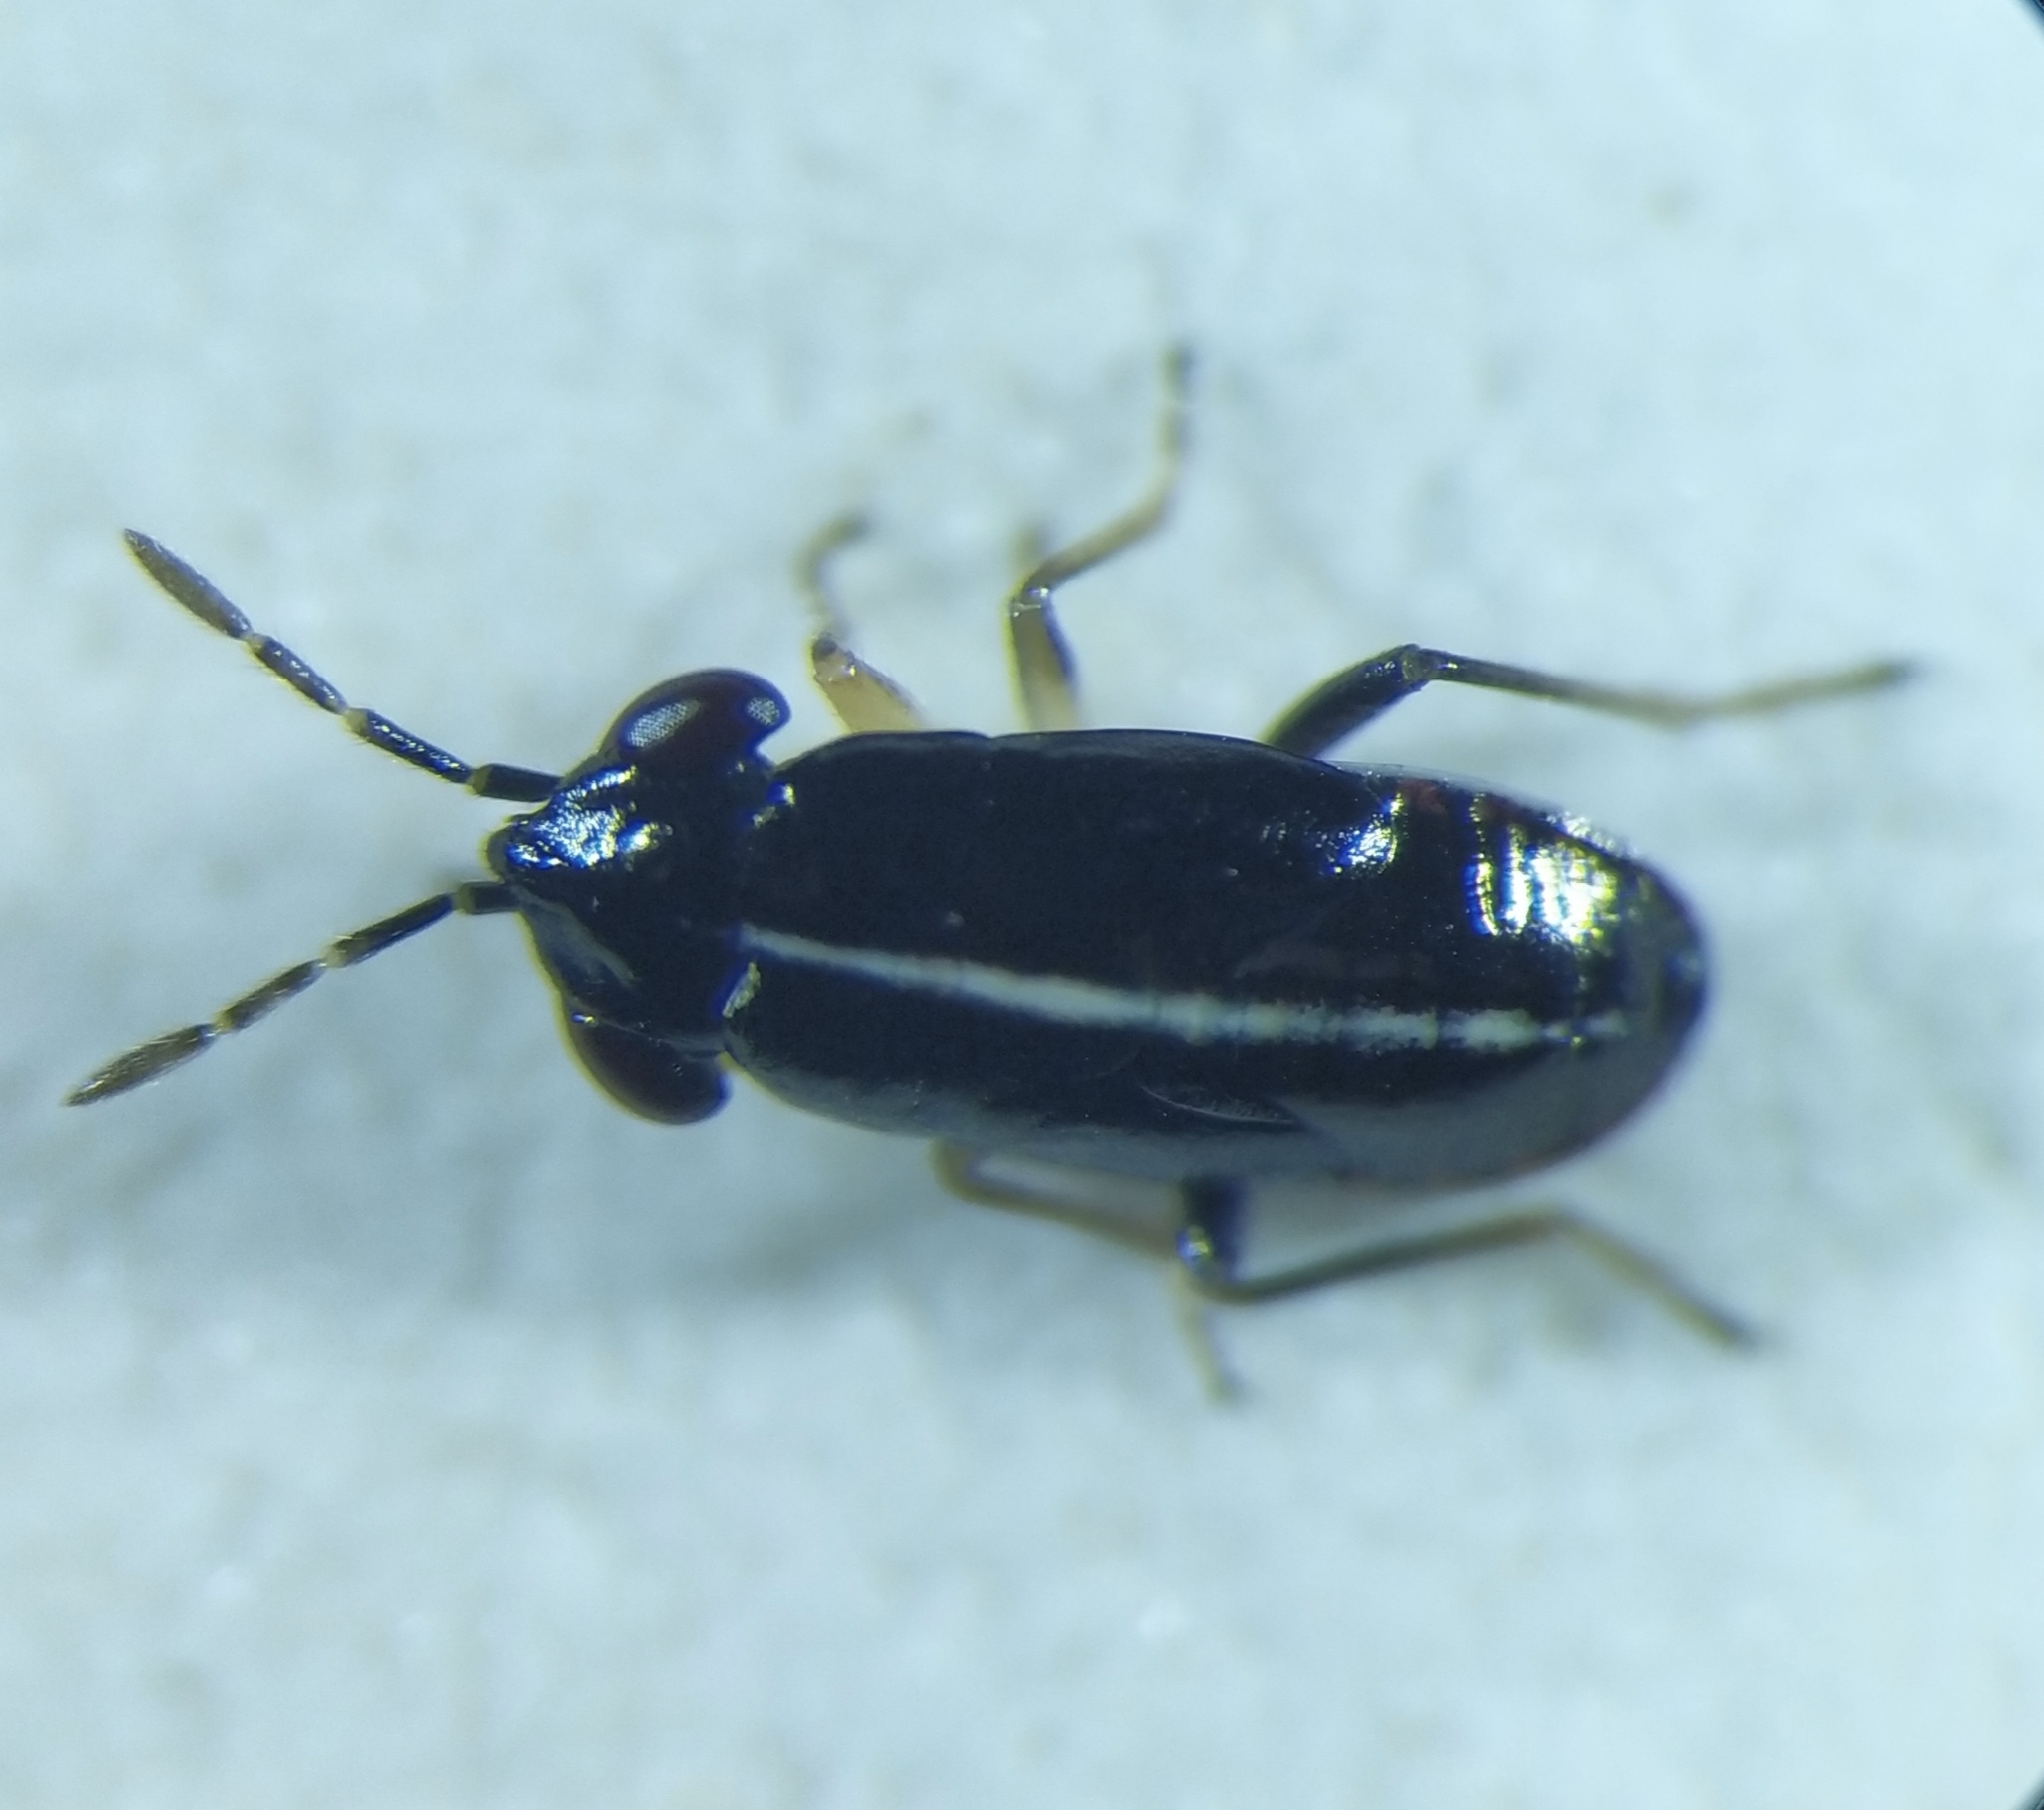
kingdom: Animalia
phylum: Arthropoda
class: Insecta
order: Hemiptera
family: Geocoridae
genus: Geocoris
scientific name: Geocoris ater
